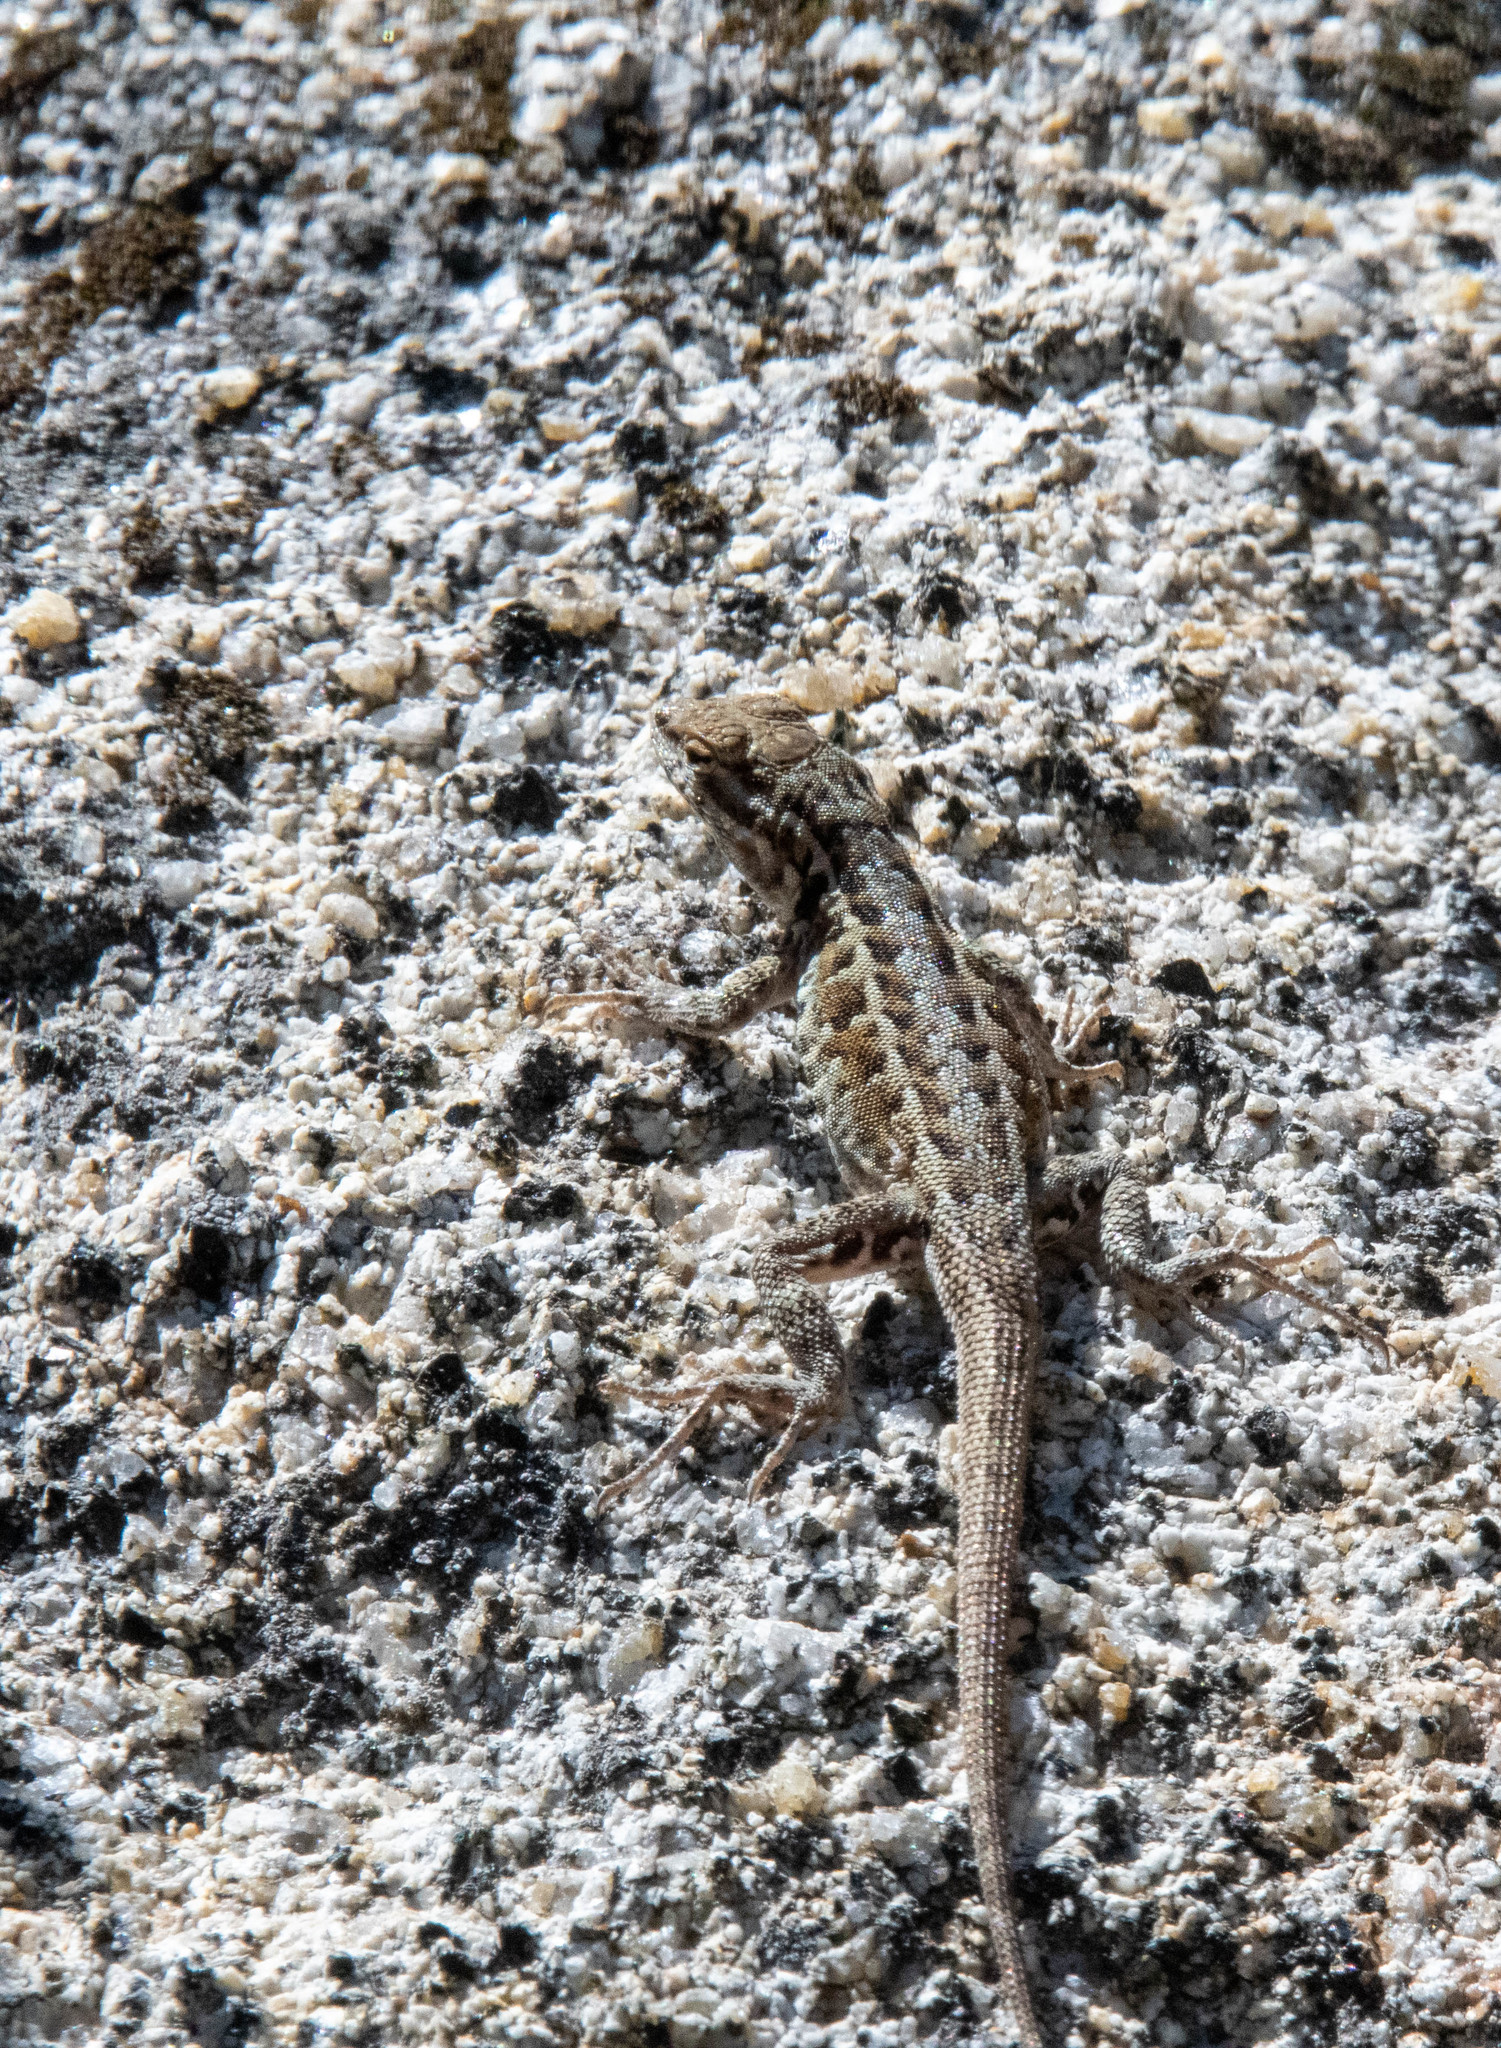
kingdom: Animalia
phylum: Chordata
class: Squamata
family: Phrynosomatidae
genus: Uta
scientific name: Uta stansburiana
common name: Side-blotched lizard
